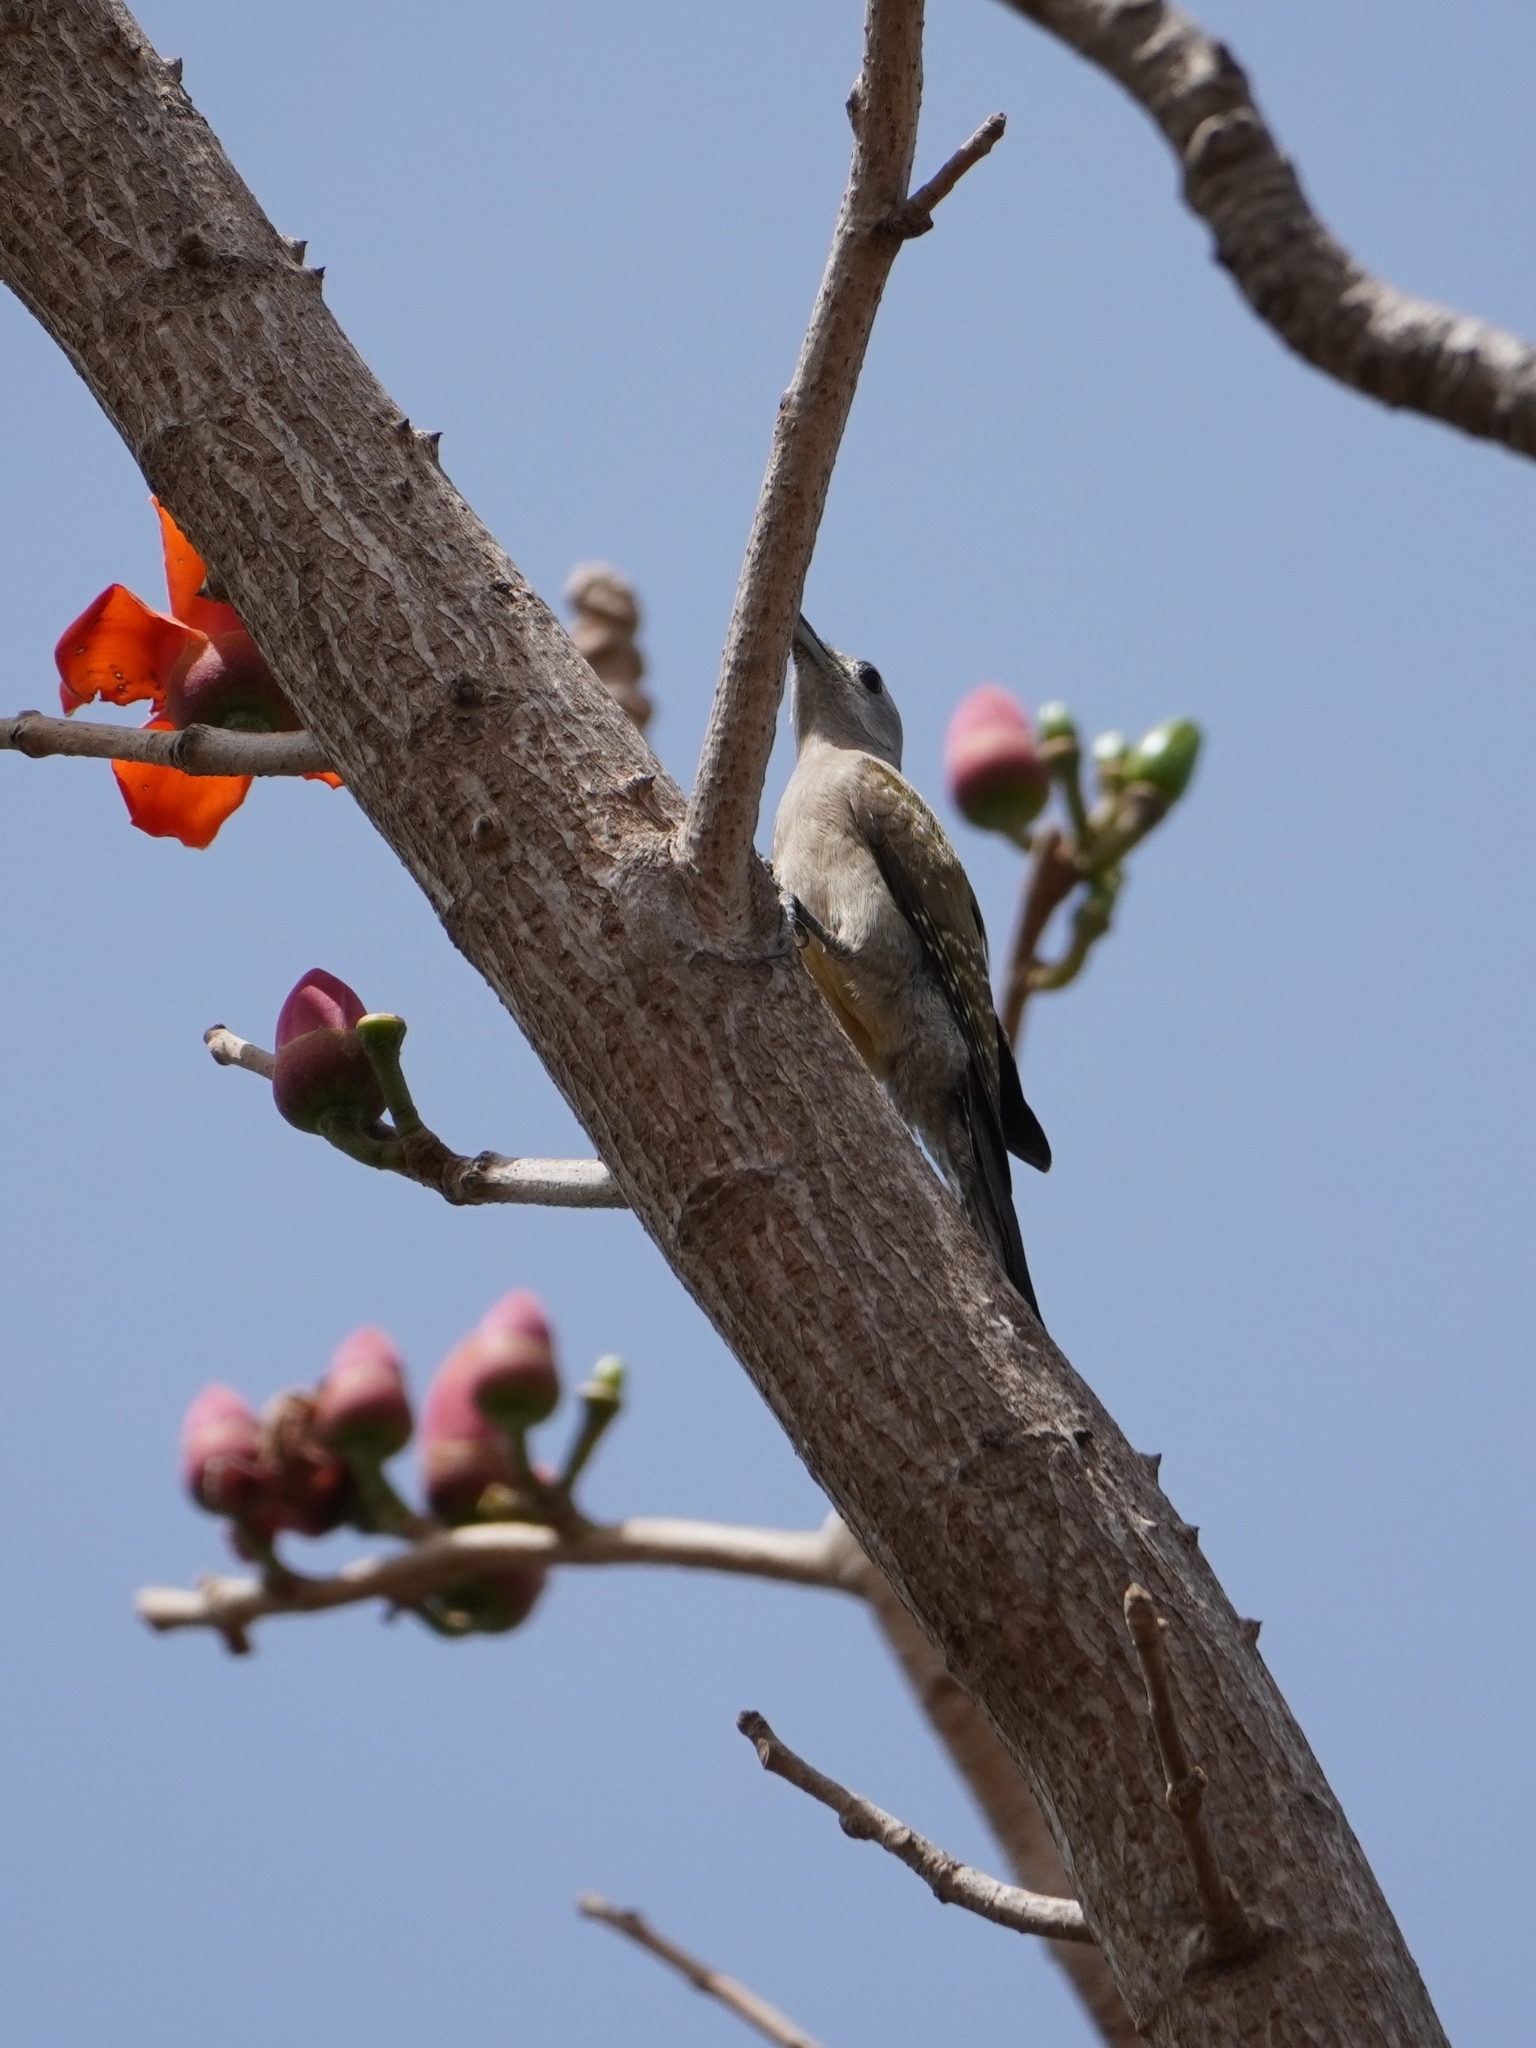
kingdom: Animalia
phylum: Chordata
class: Aves
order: Piciformes
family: Picidae
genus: Dendropicos
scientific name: Dendropicos goertae
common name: African grey woodpecker
